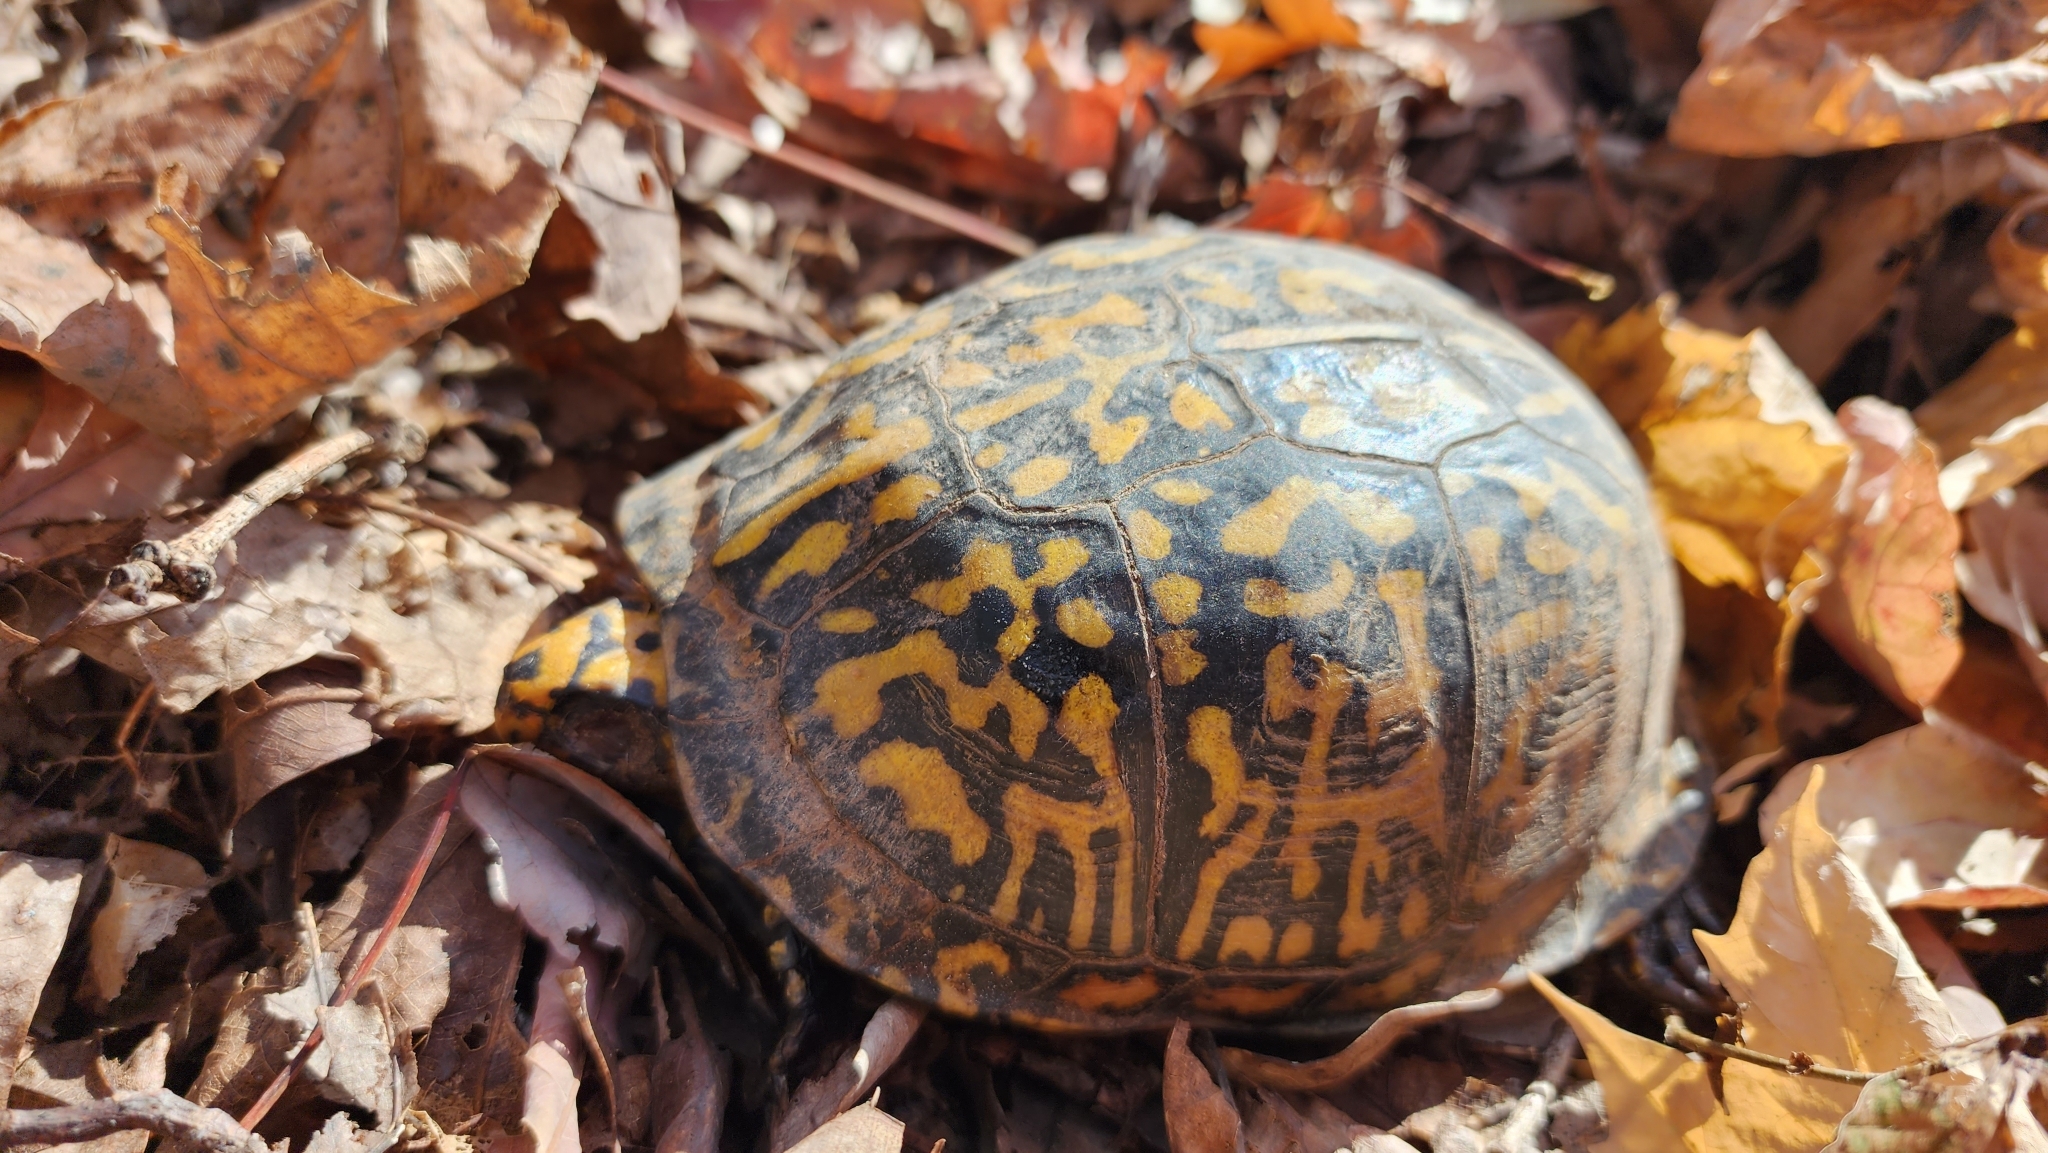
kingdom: Animalia
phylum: Chordata
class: Testudines
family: Emydidae
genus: Terrapene
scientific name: Terrapene carolina
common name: Common box turtle
